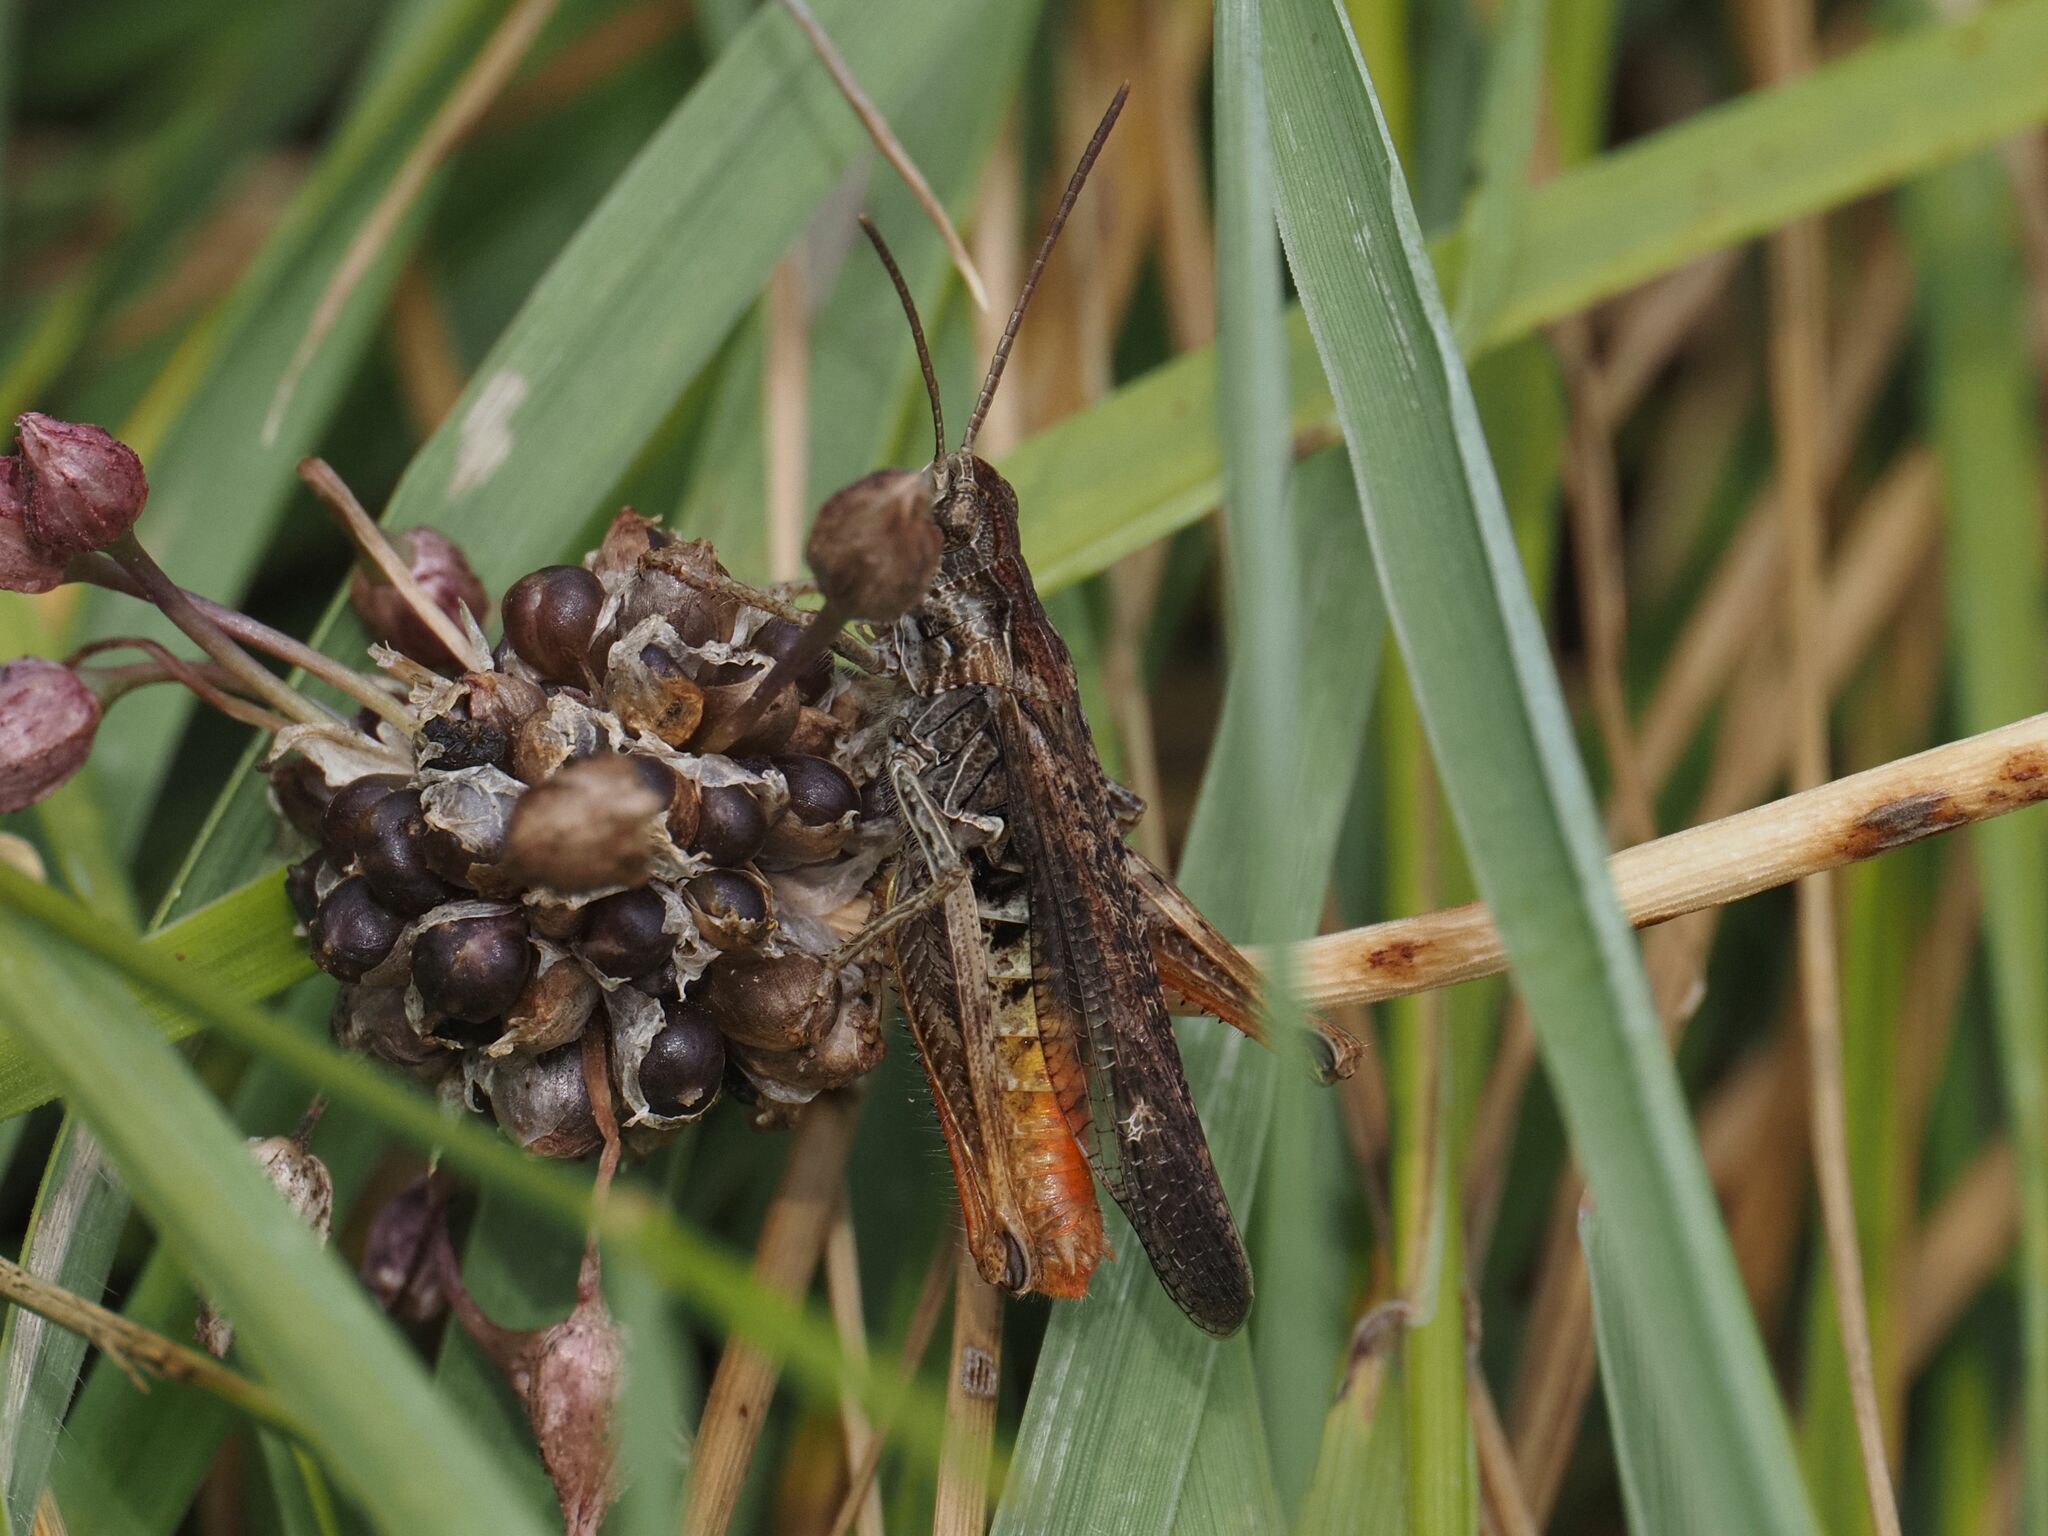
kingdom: Animalia
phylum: Arthropoda
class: Insecta
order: Orthoptera
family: Acrididae
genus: Chorthippus
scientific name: Chorthippus brunneus
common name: Field grasshopper
